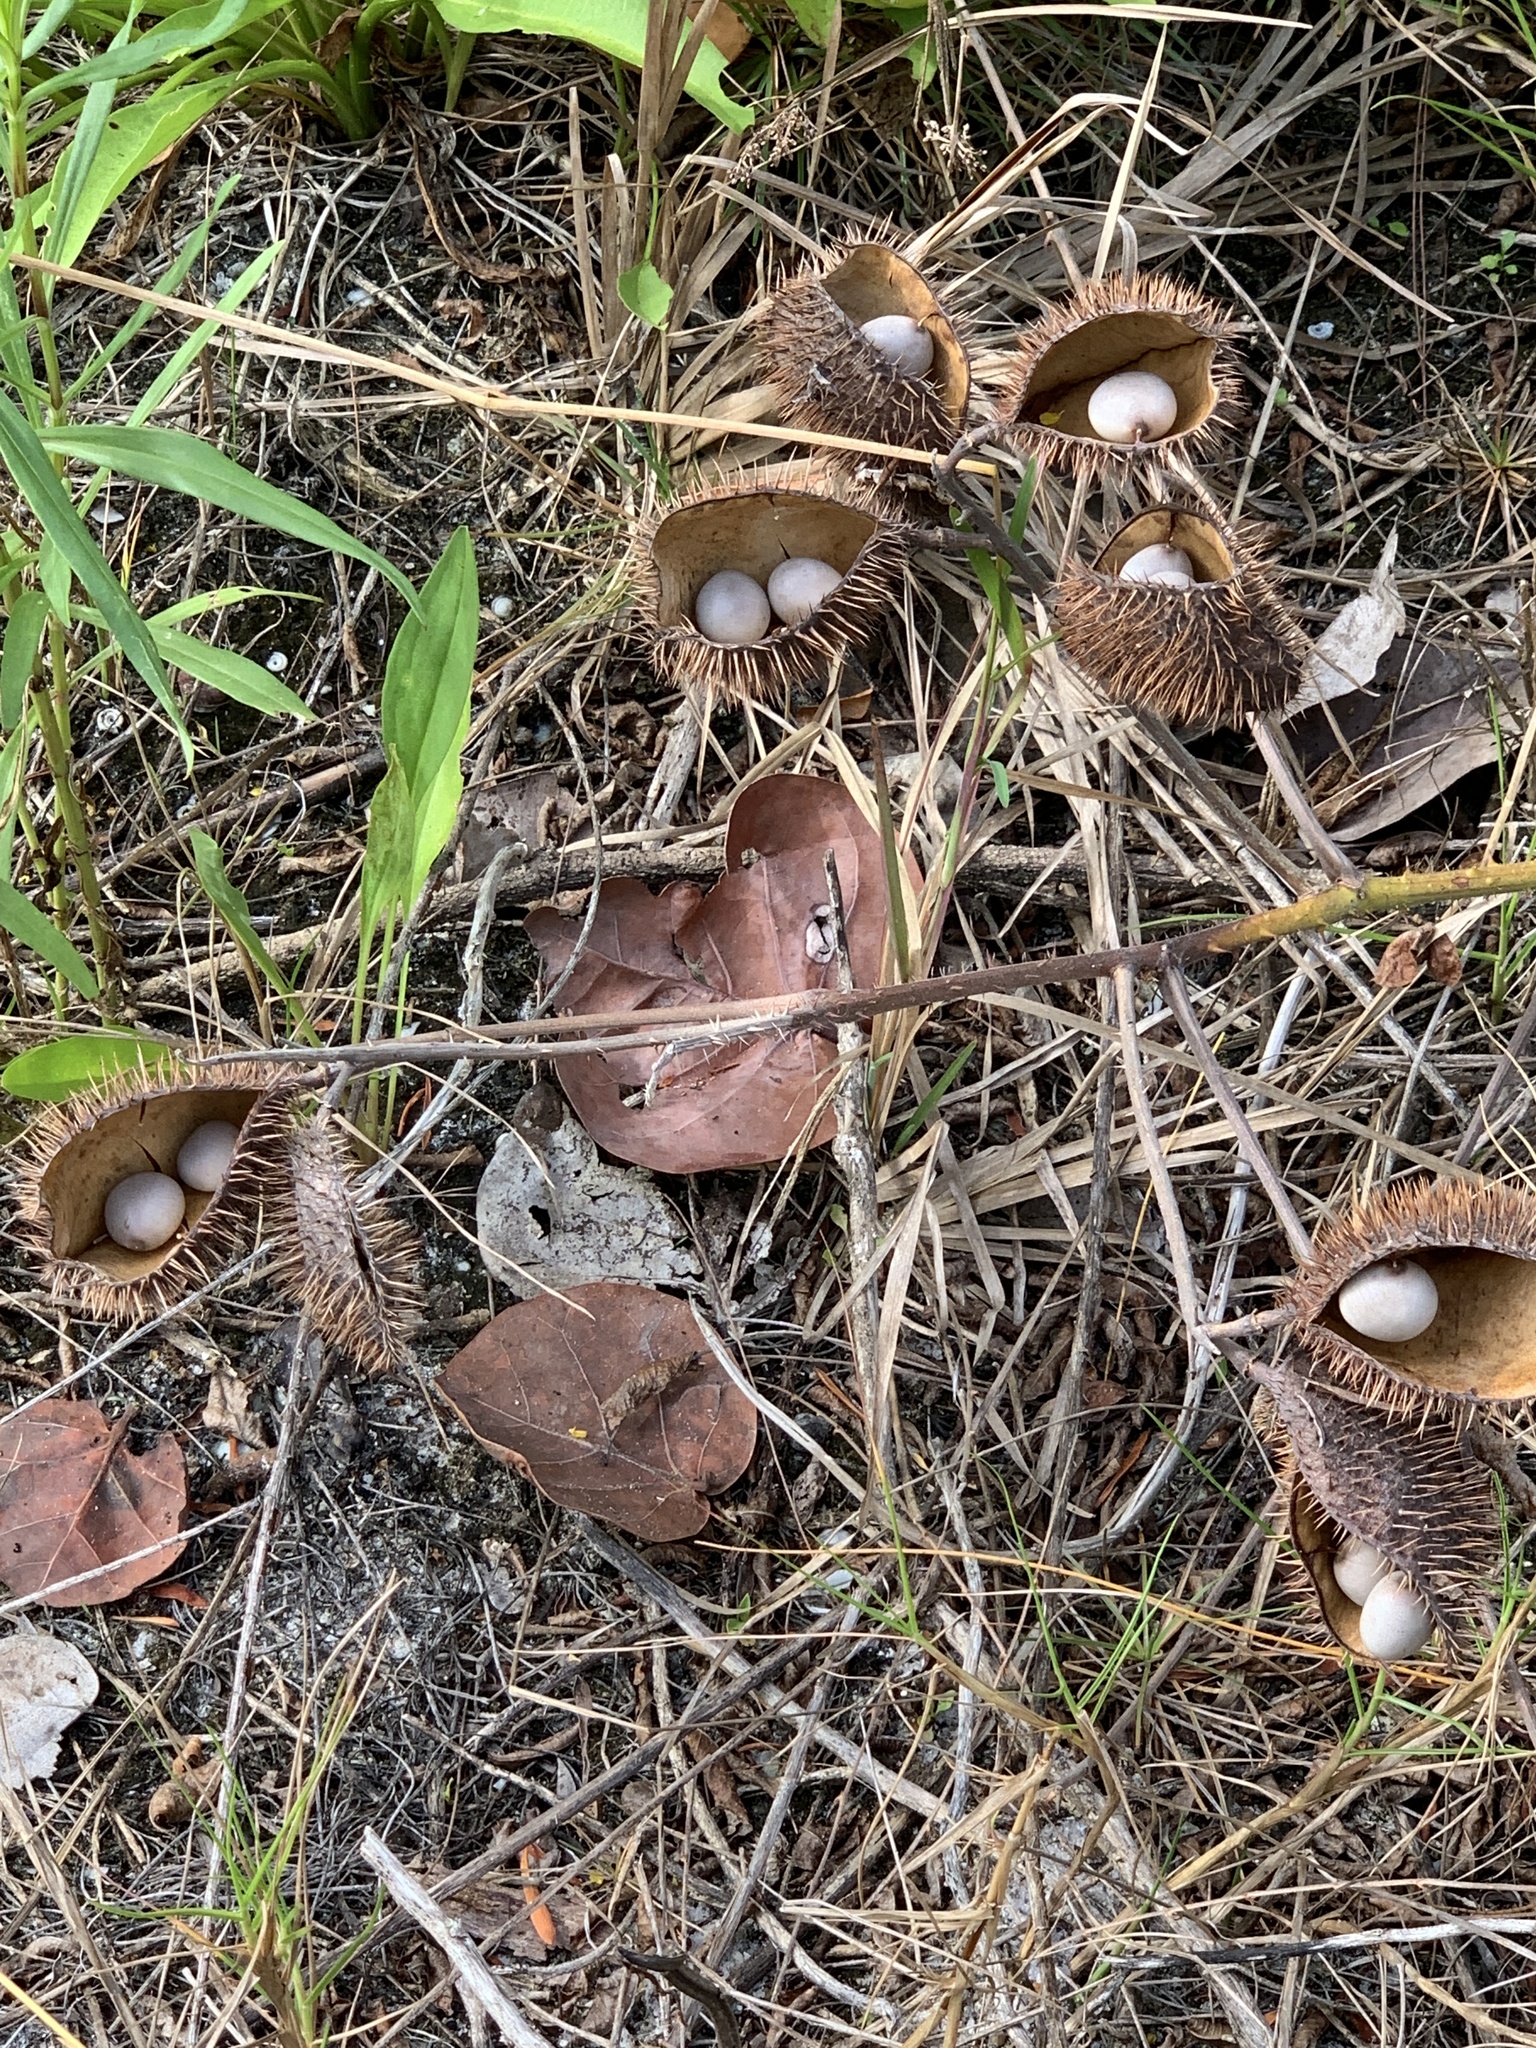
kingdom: Plantae
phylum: Tracheophyta
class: Magnoliopsida
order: Fabales
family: Fabaceae
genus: Guilandina
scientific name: Guilandina bonduc
